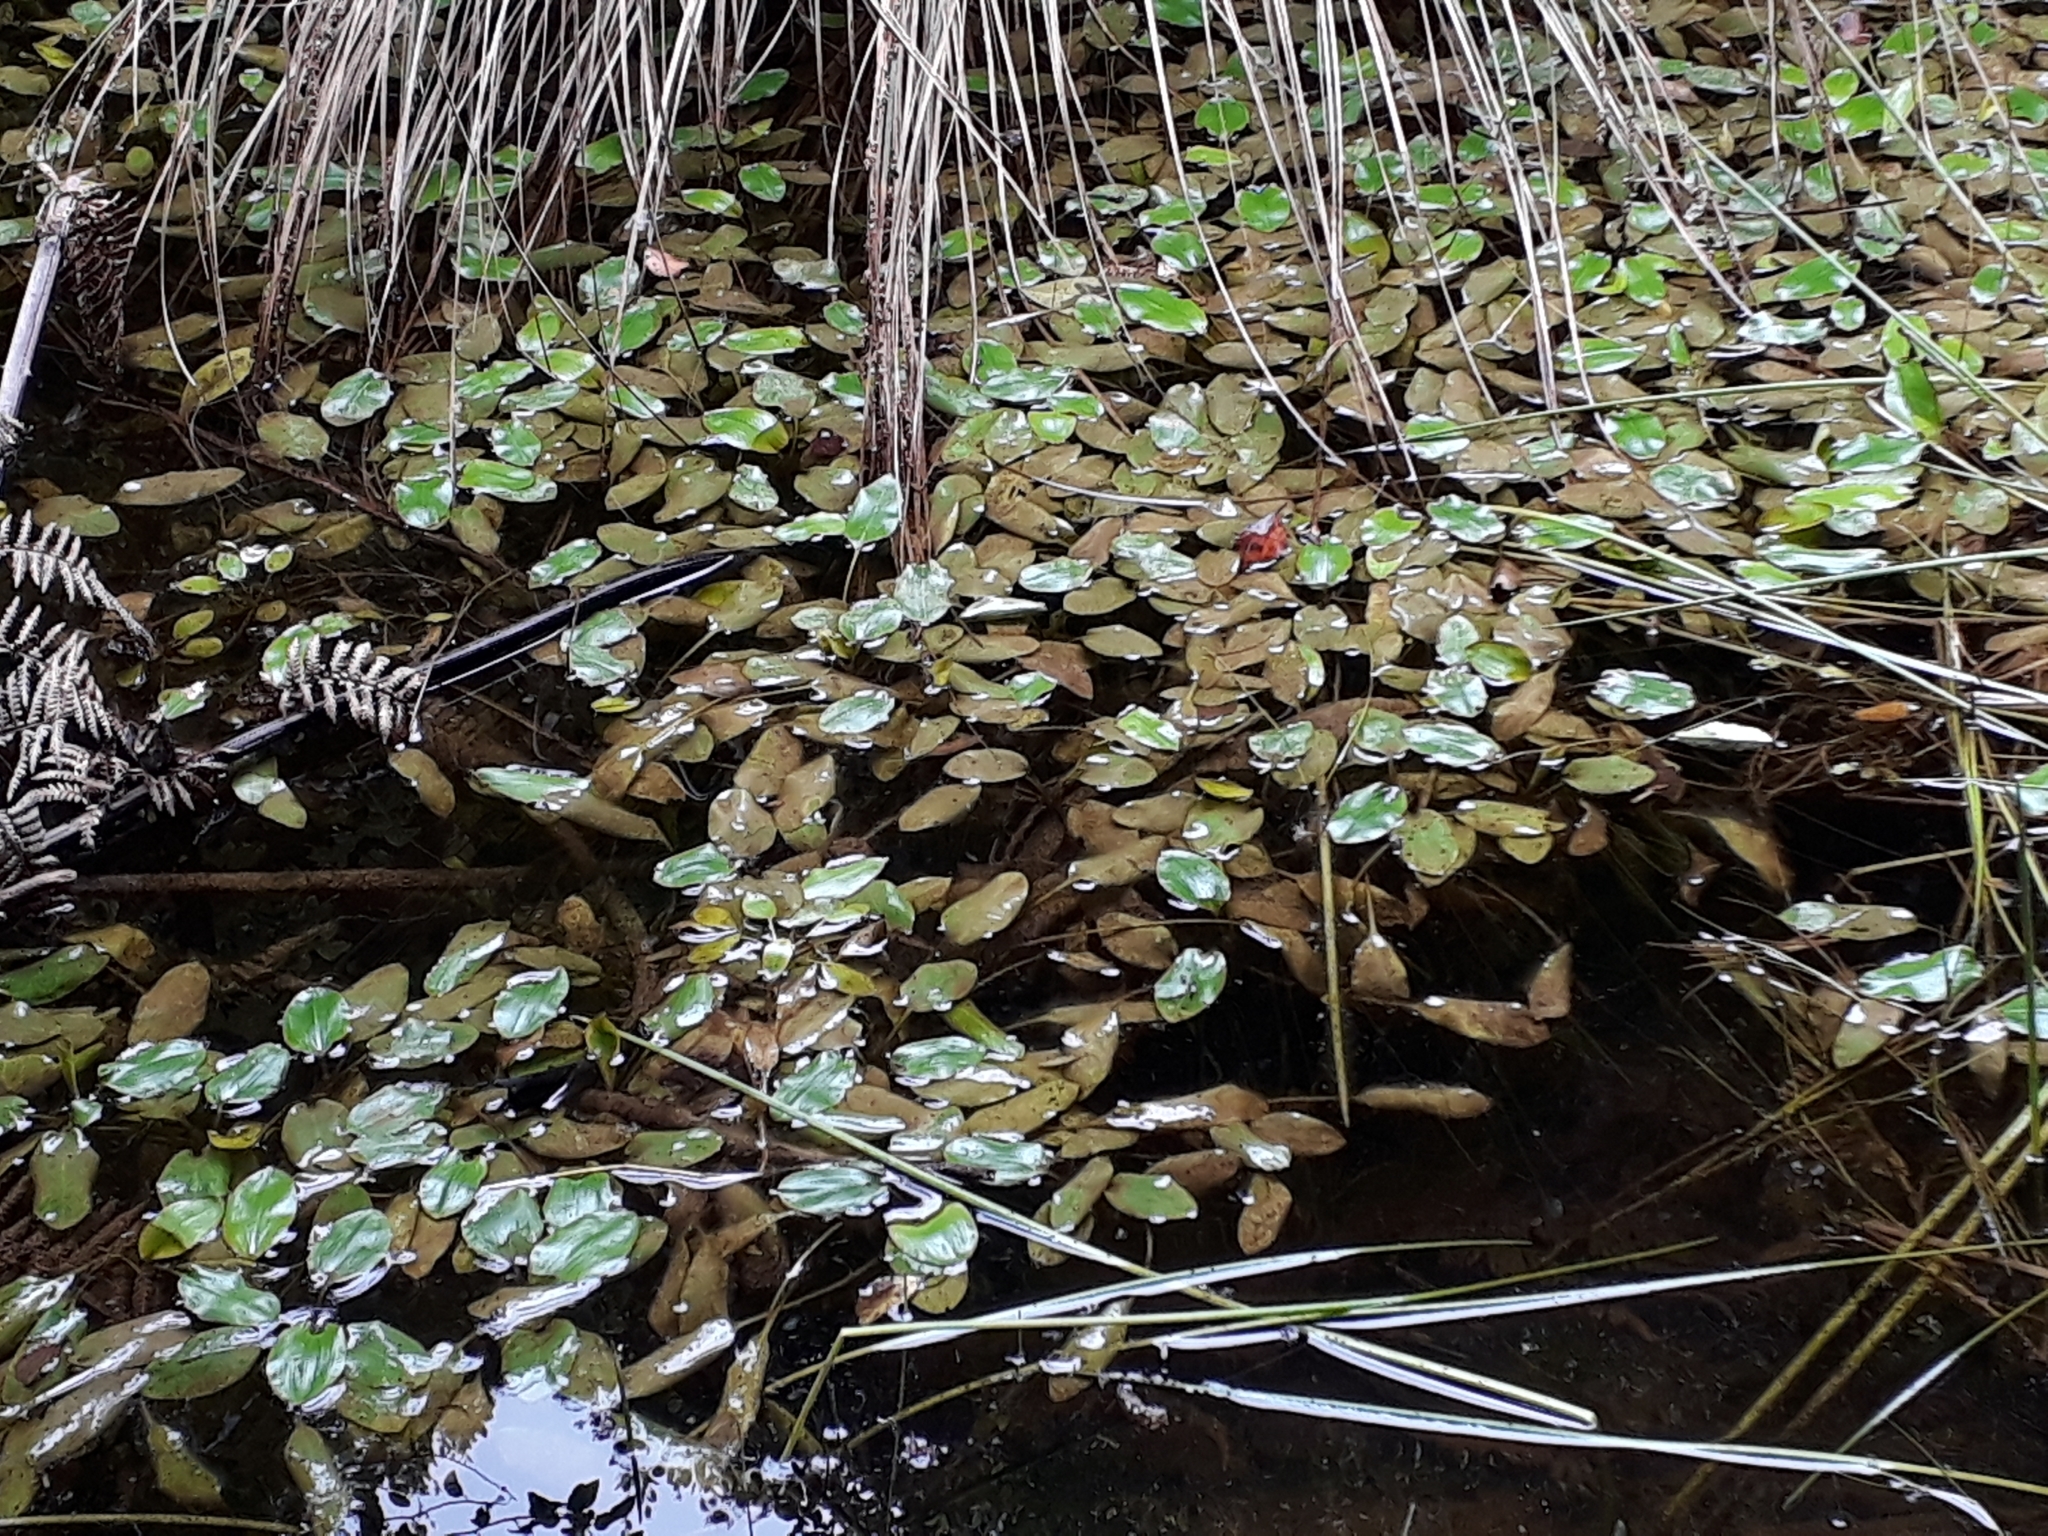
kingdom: Plantae
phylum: Tracheophyta
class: Liliopsida
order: Alismatales
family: Potamogetonaceae
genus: Potamogeton
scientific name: Potamogeton cheesemanii
